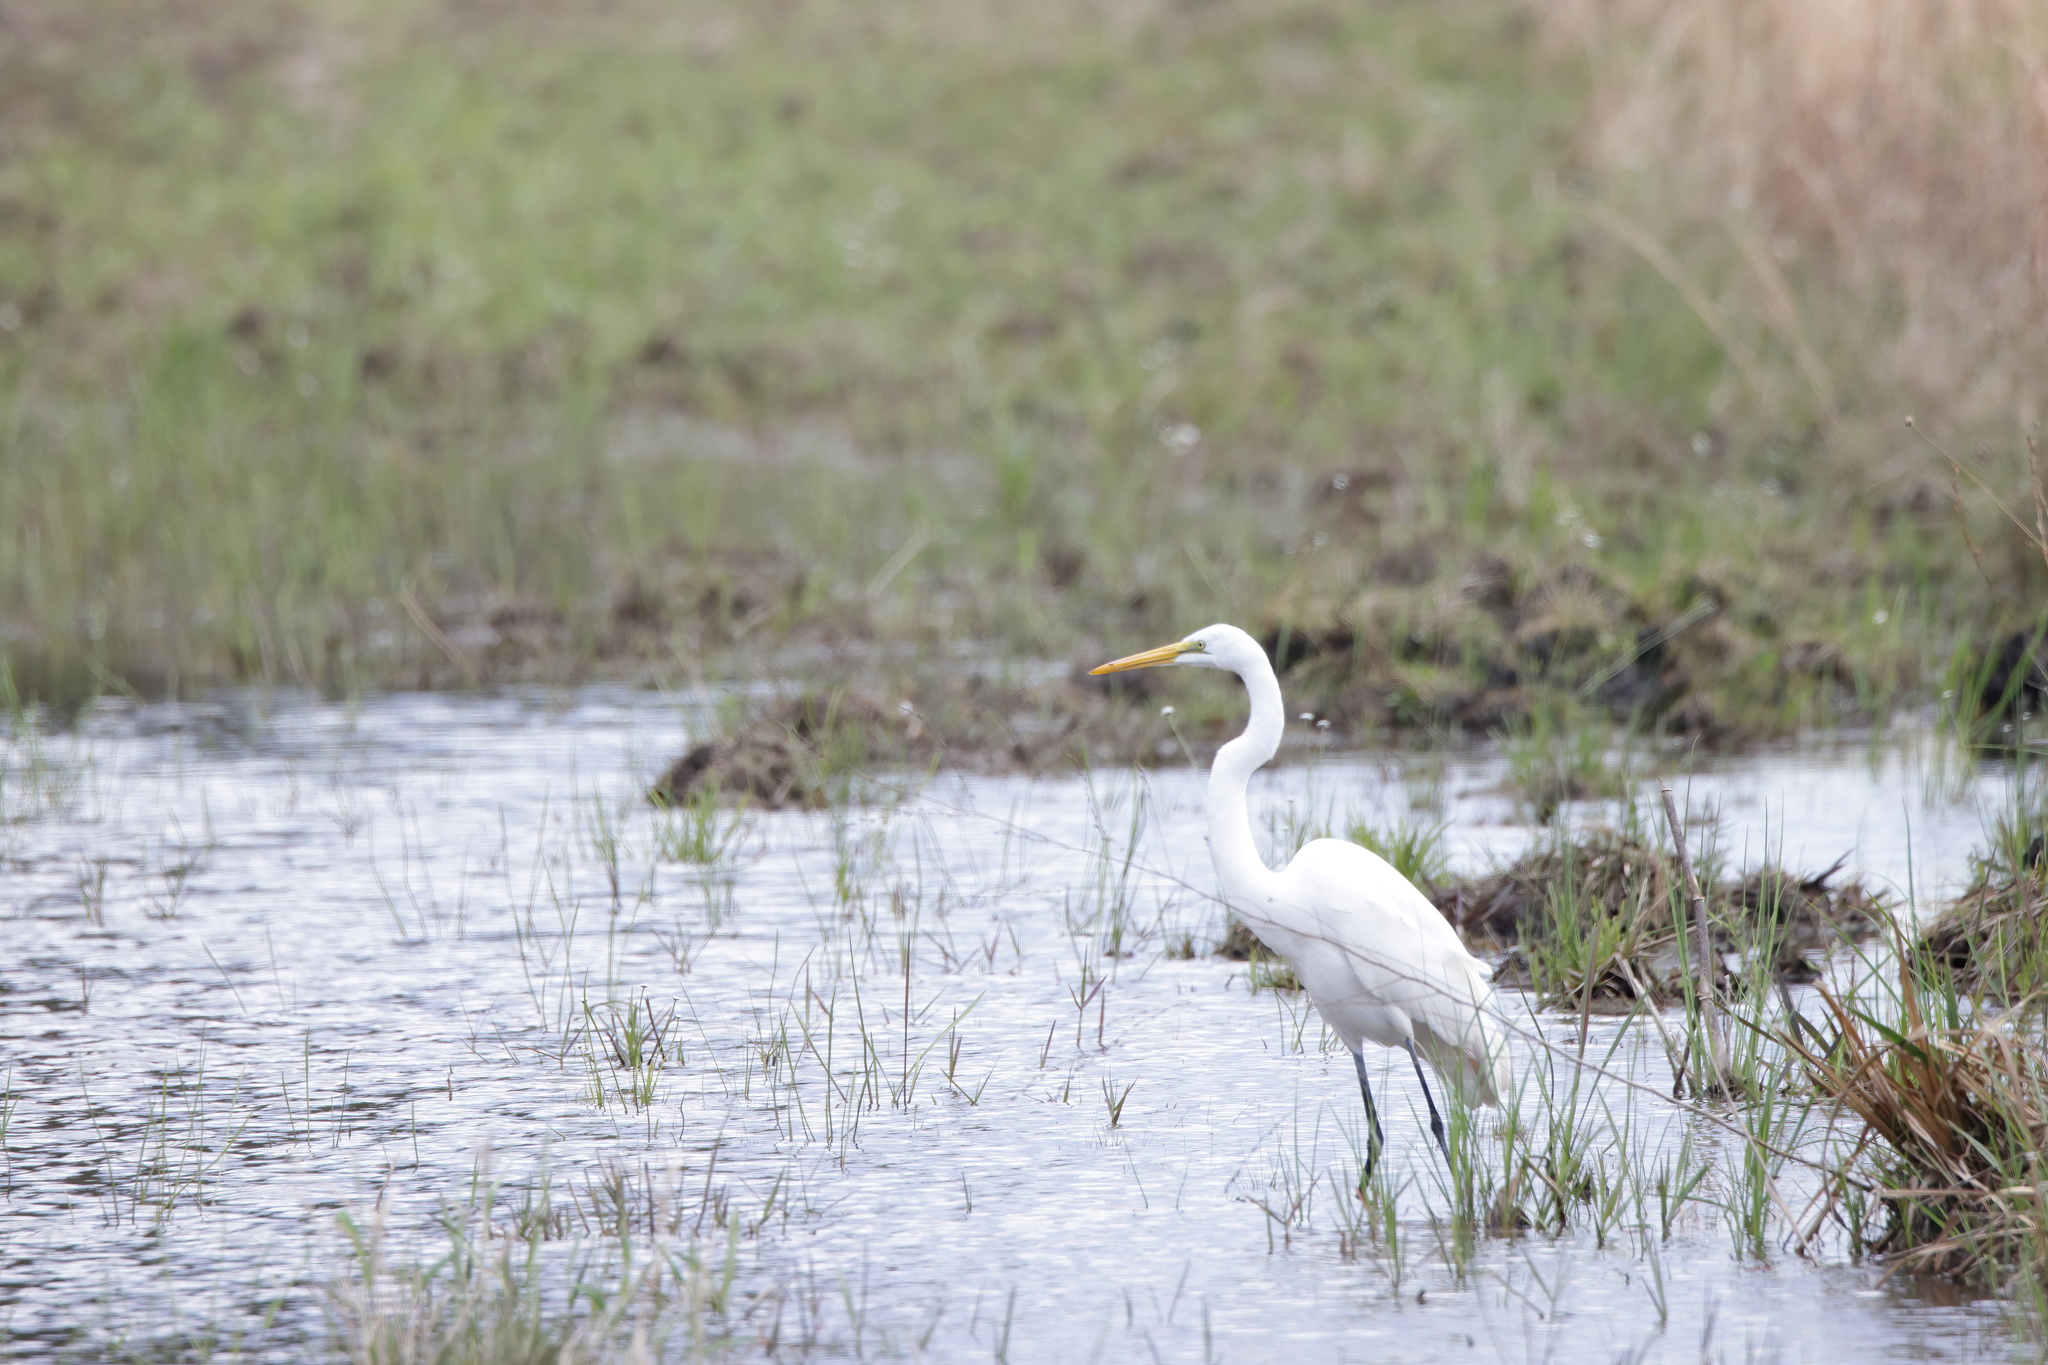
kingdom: Animalia
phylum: Chordata
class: Aves
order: Pelecaniformes
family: Ardeidae
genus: Ardea
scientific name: Ardea alba
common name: Great egret
